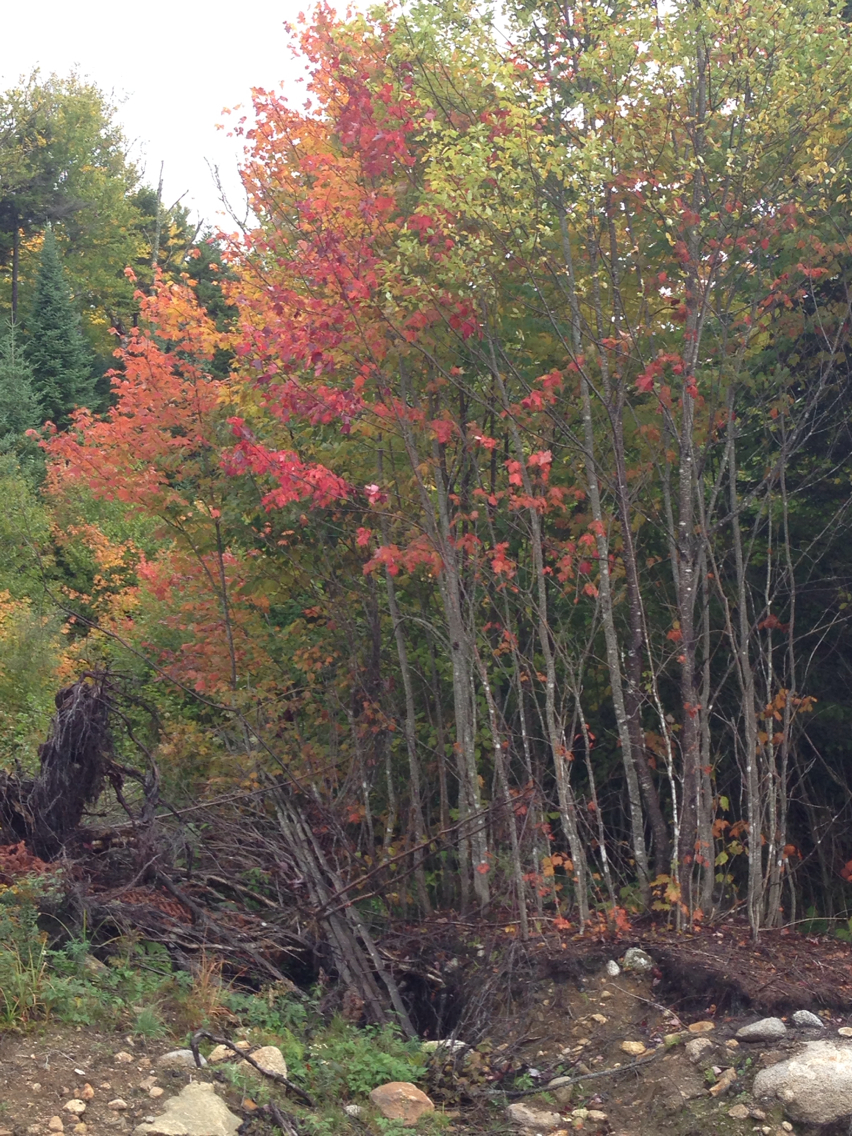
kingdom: Plantae
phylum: Tracheophyta
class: Magnoliopsida
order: Sapindales
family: Sapindaceae
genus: Acer
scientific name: Acer rubrum
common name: Red maple
